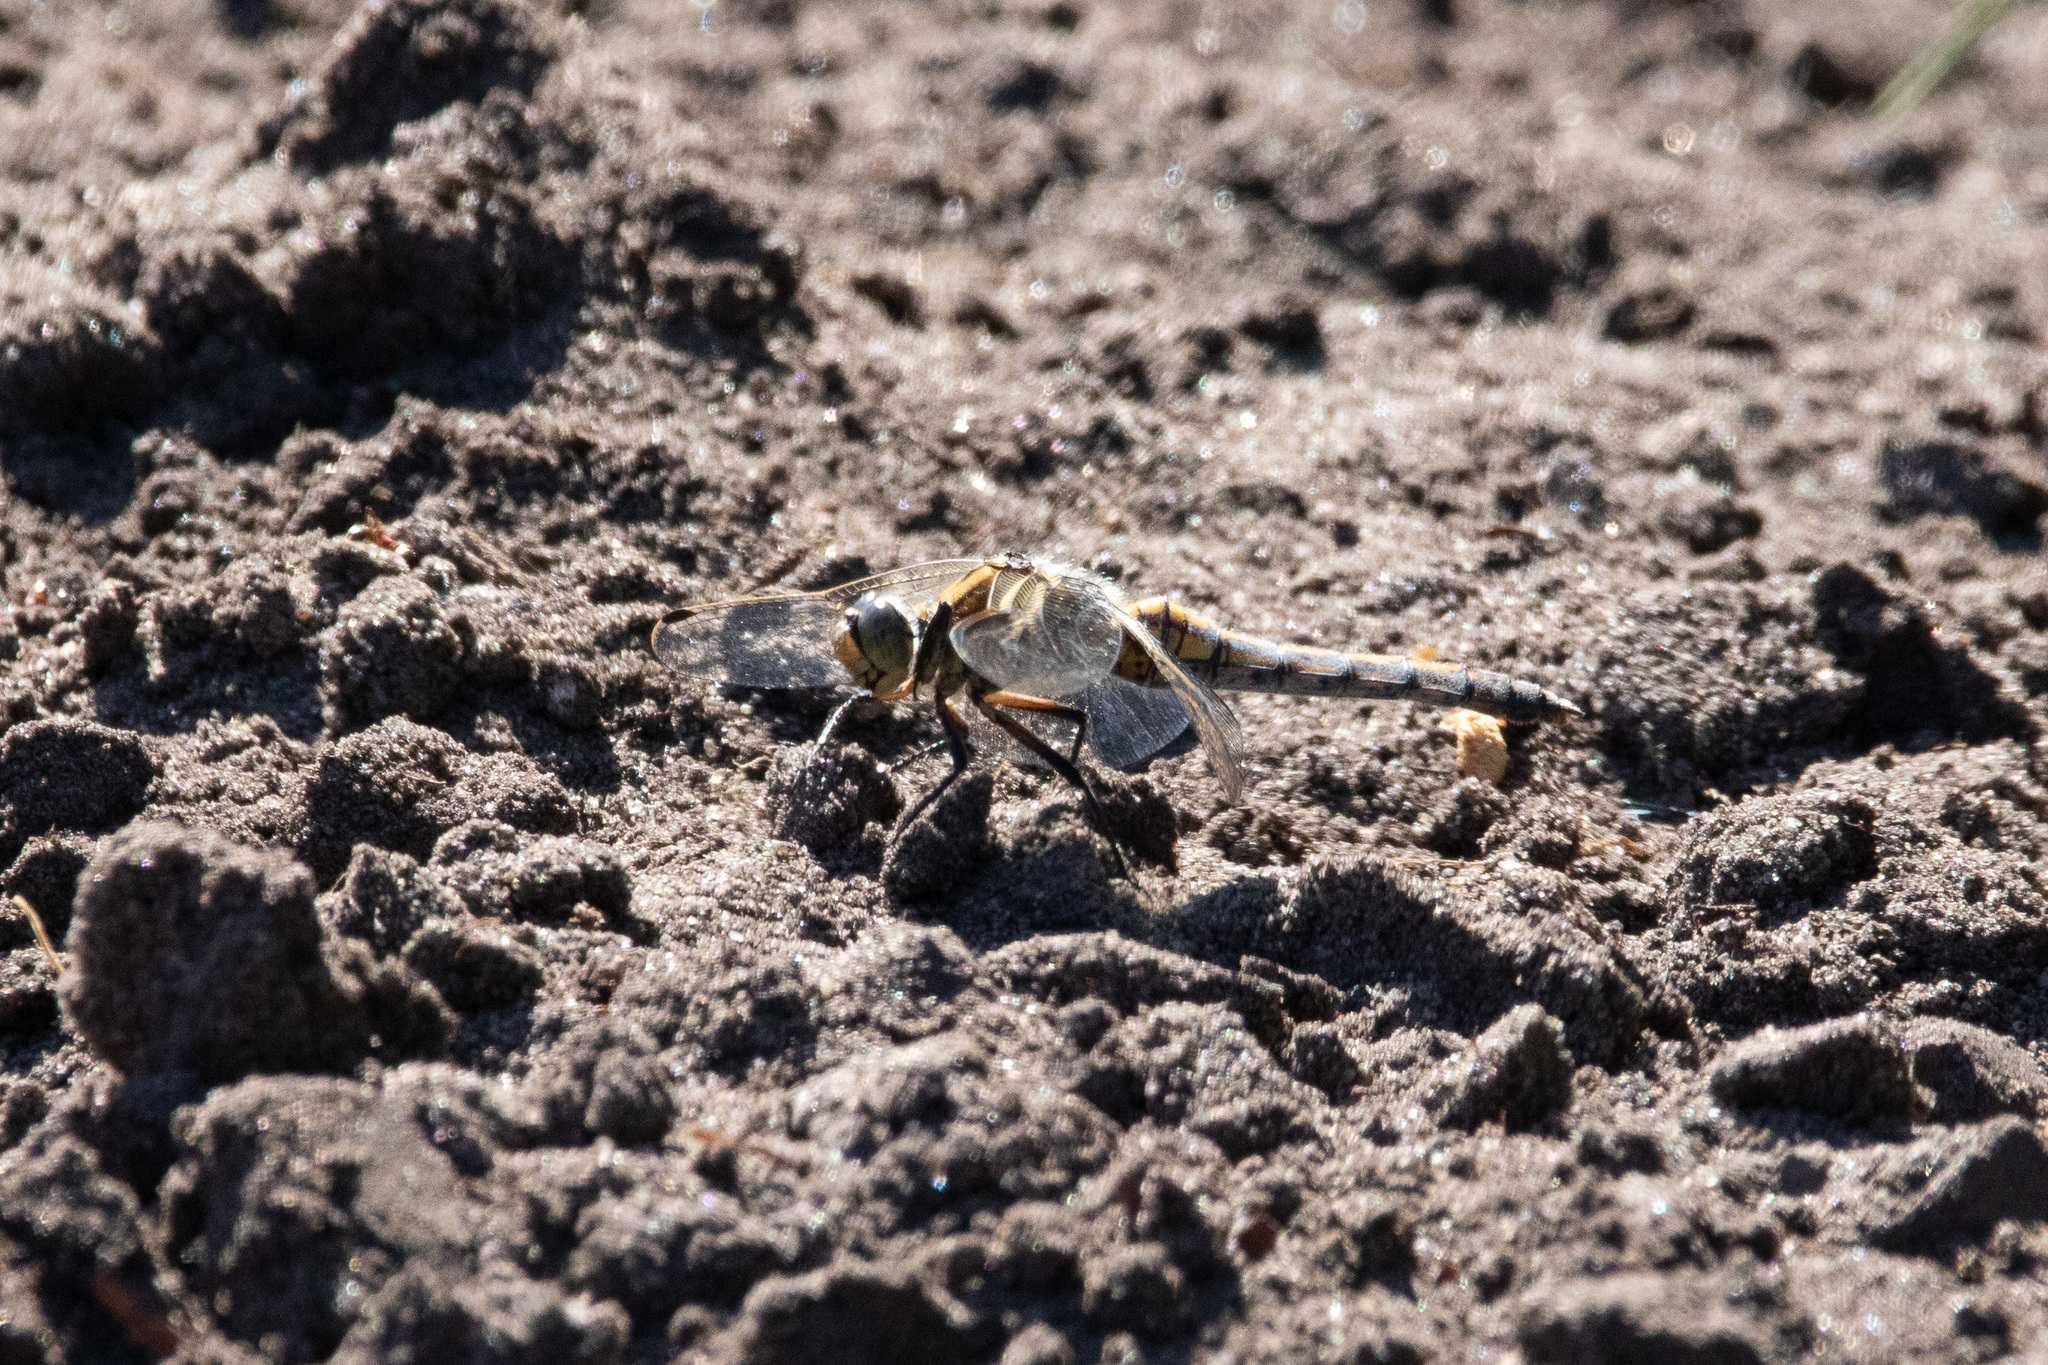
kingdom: Animalia
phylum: Arthropoda
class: Insecta
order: Odonata
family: Libellulidae
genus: Orthetrum
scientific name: Orthetrum cancellatum
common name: Black-tailed skimmer
